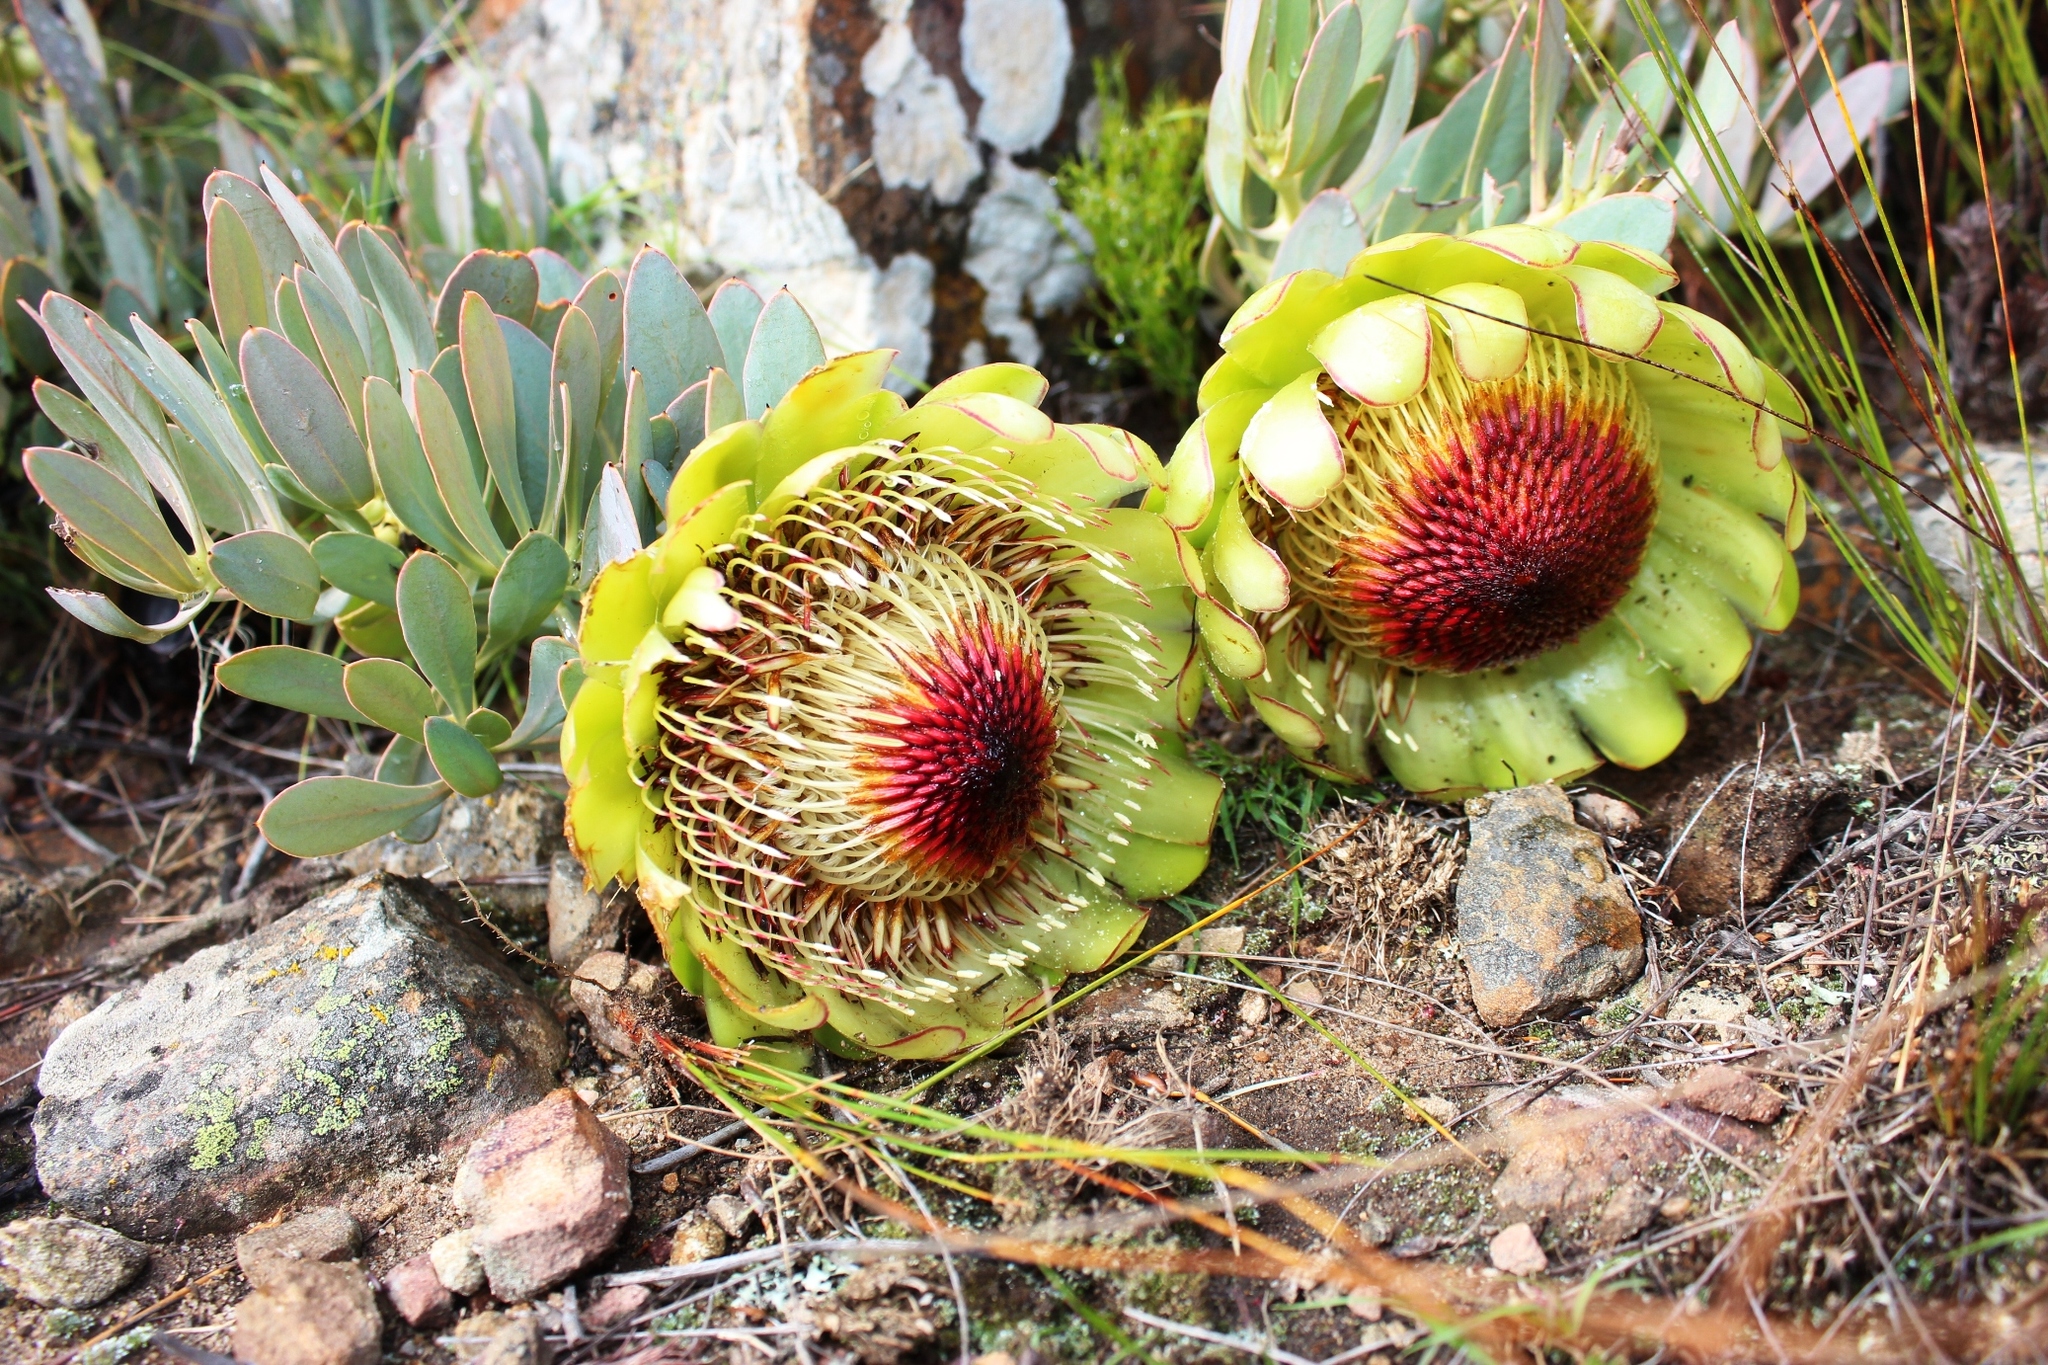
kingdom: Plantae
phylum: Tracheophyta
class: Magnoliopsida
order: Proteales
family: Proteaceae
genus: Protea
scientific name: Protea effusa
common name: Scarlet sugarbush
